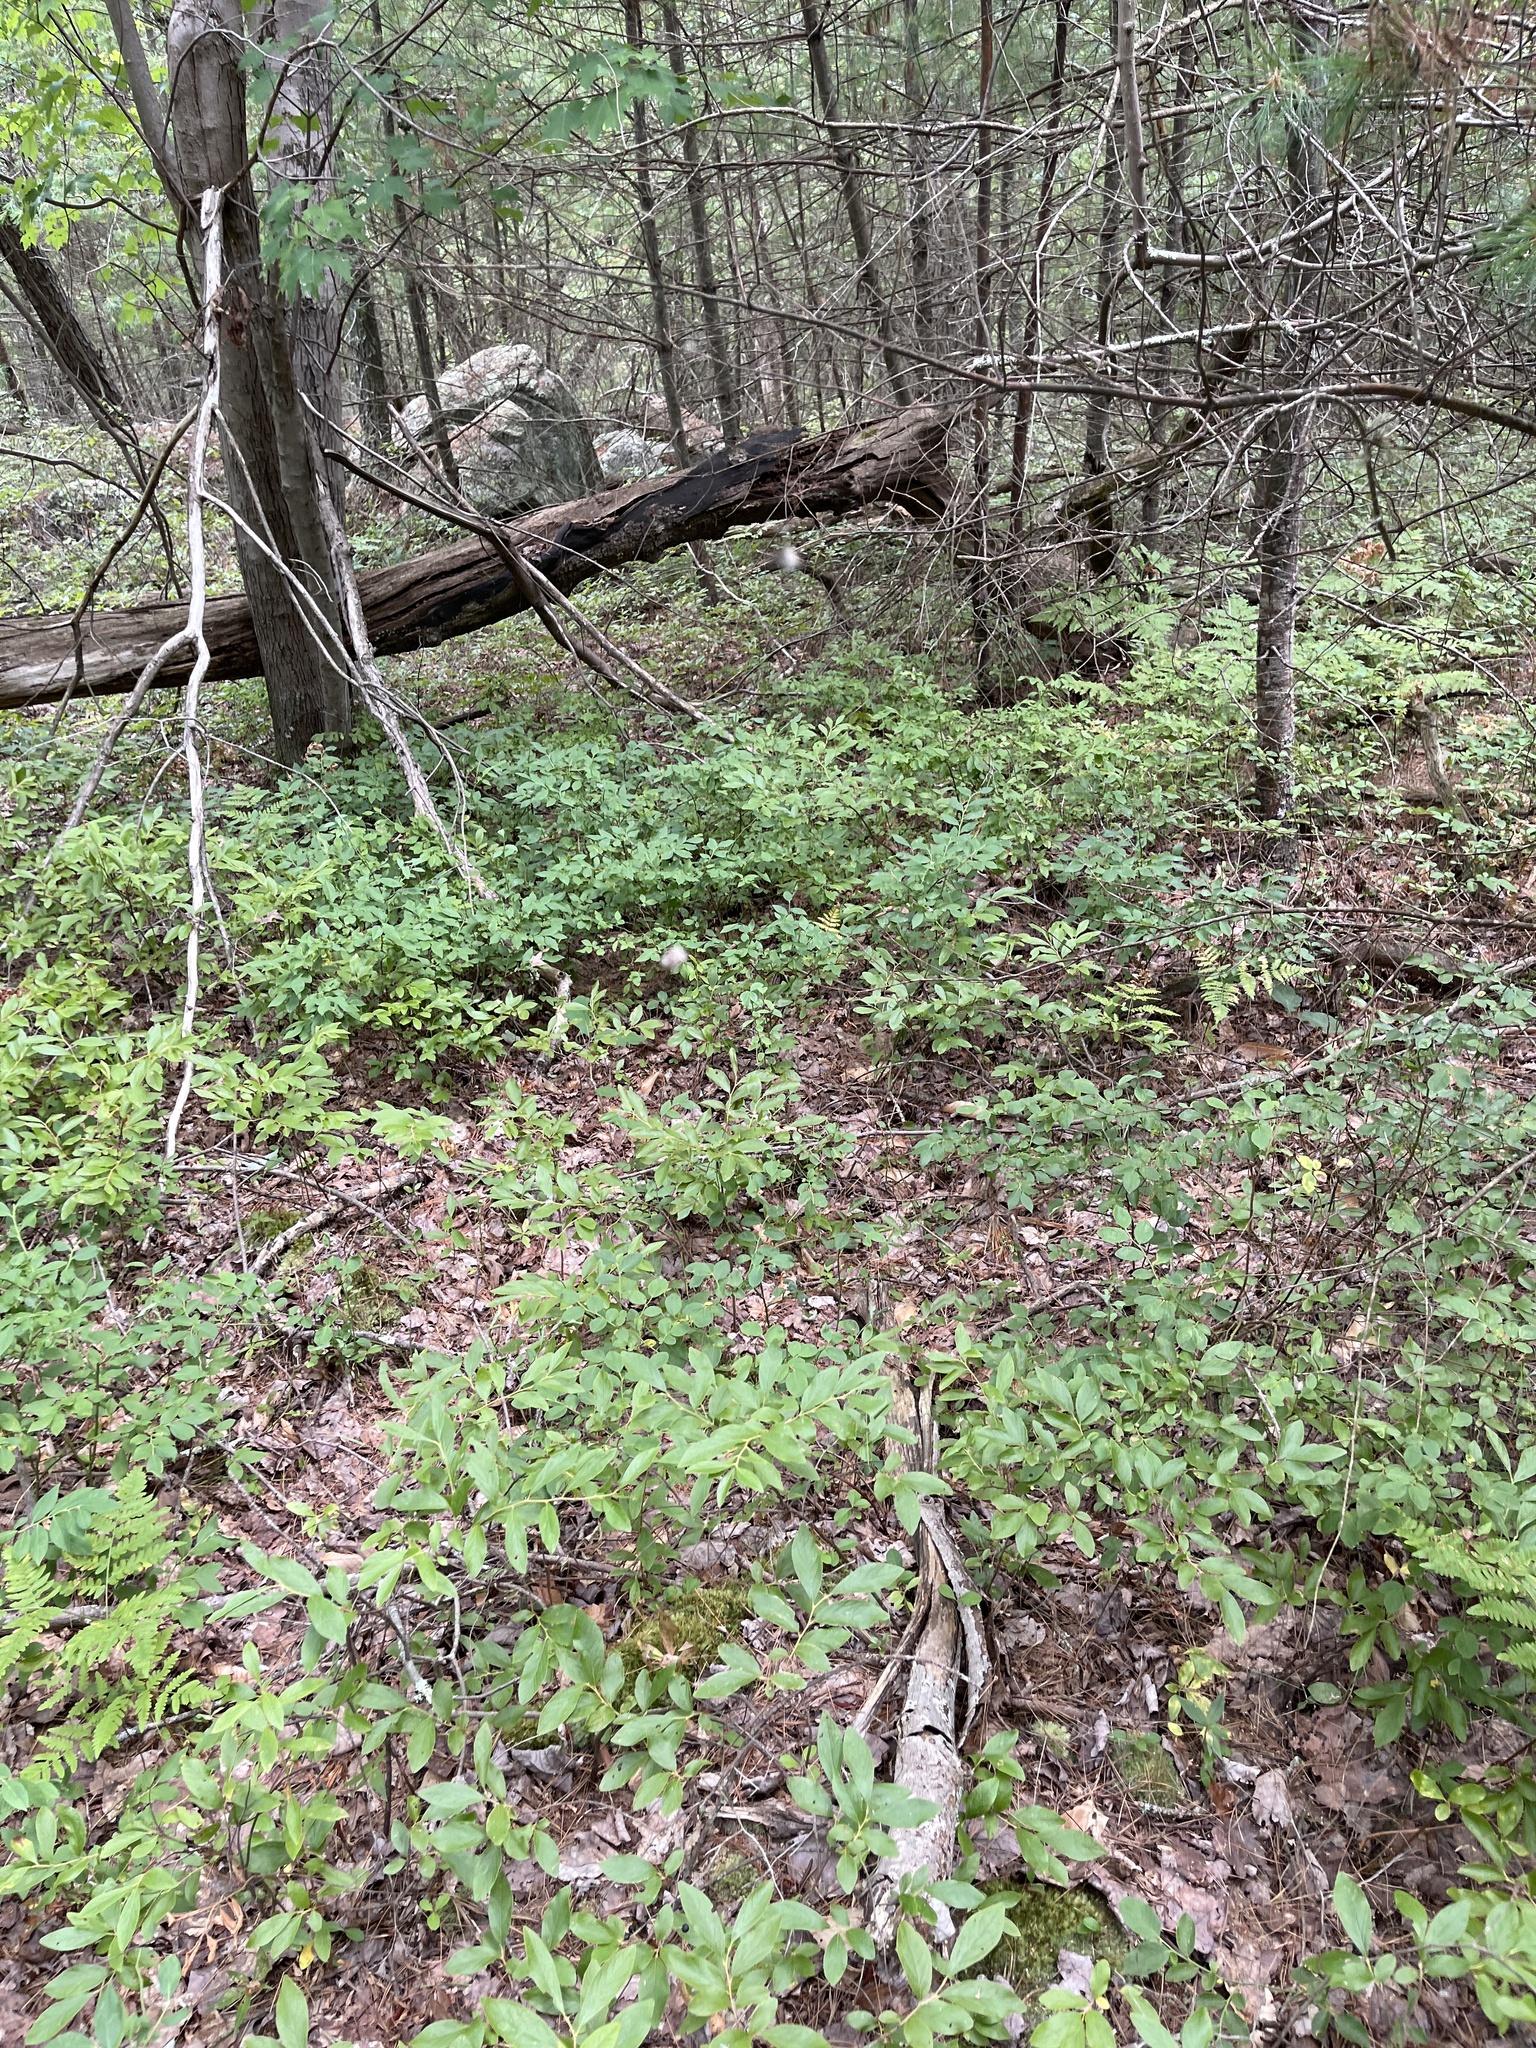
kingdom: Animalia
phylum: Arthropoda
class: Arachnida
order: Araneae
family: Araneidae
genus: Micrathena
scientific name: Micrathena gracilis
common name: Orb weavers
